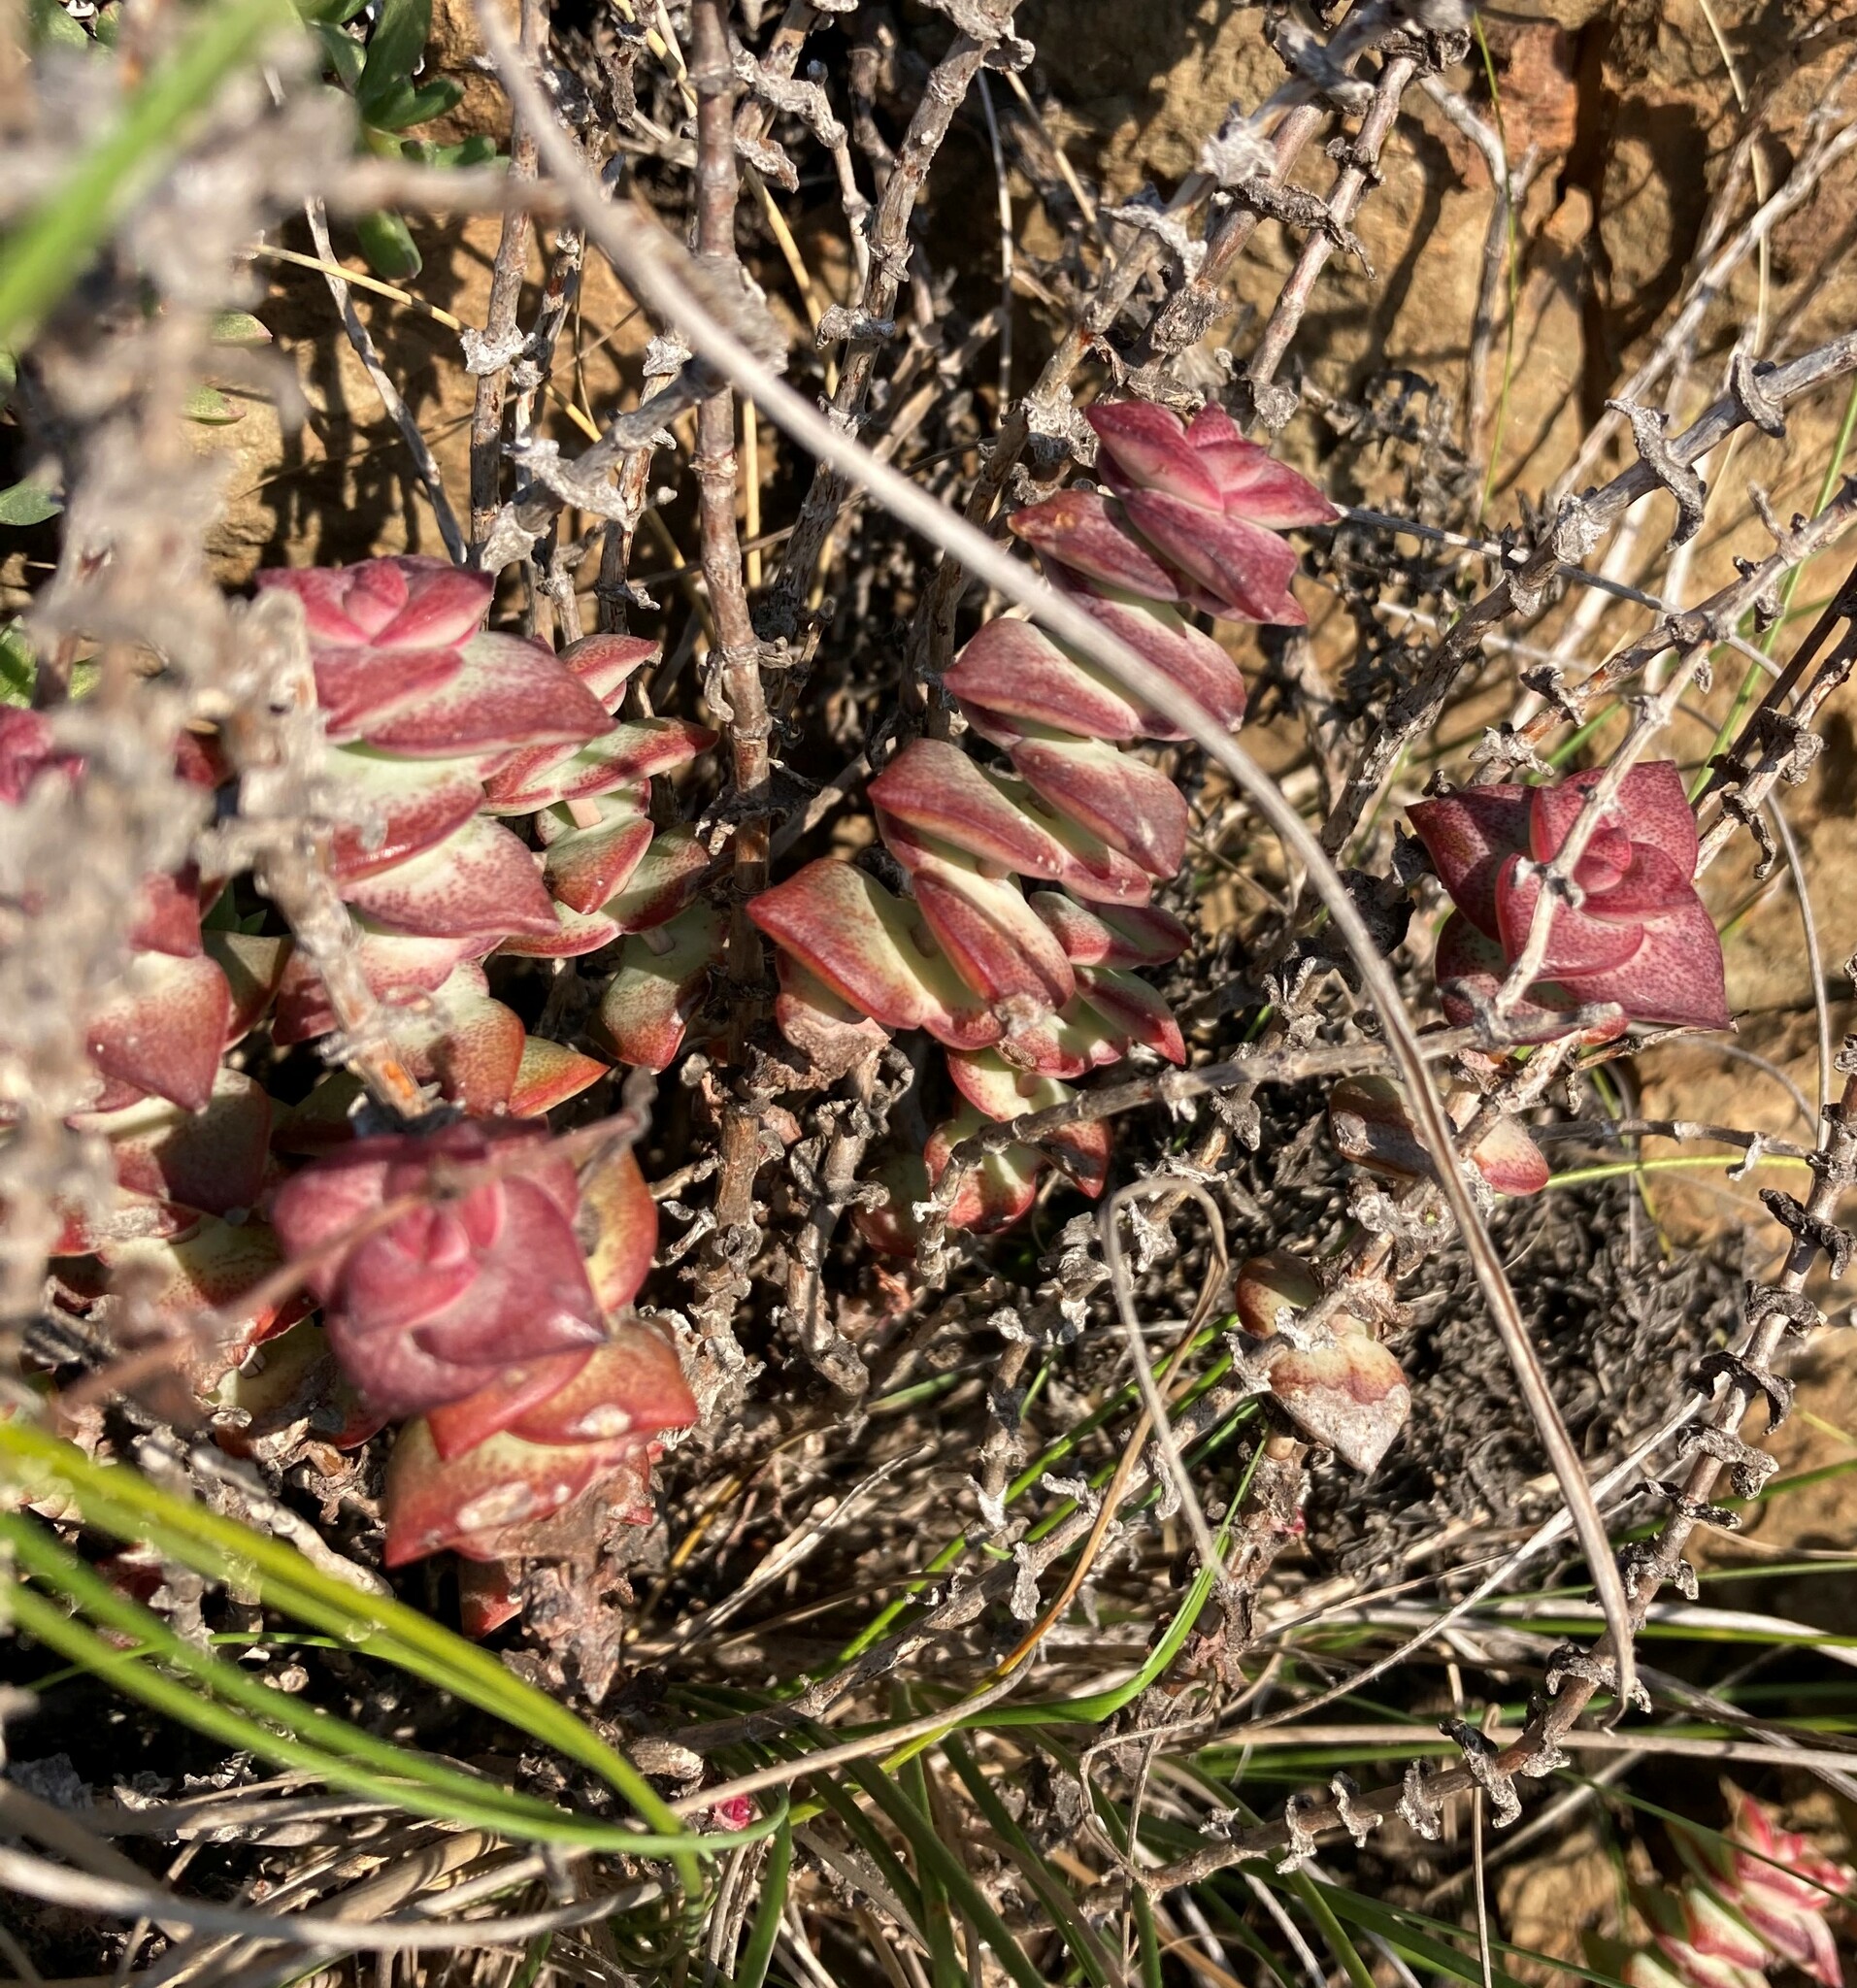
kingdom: Plantae
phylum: Tracheophyta
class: Magnoliopsida
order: Saxifragales
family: Crassulaceae
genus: Crassula
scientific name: Crassula perforata
